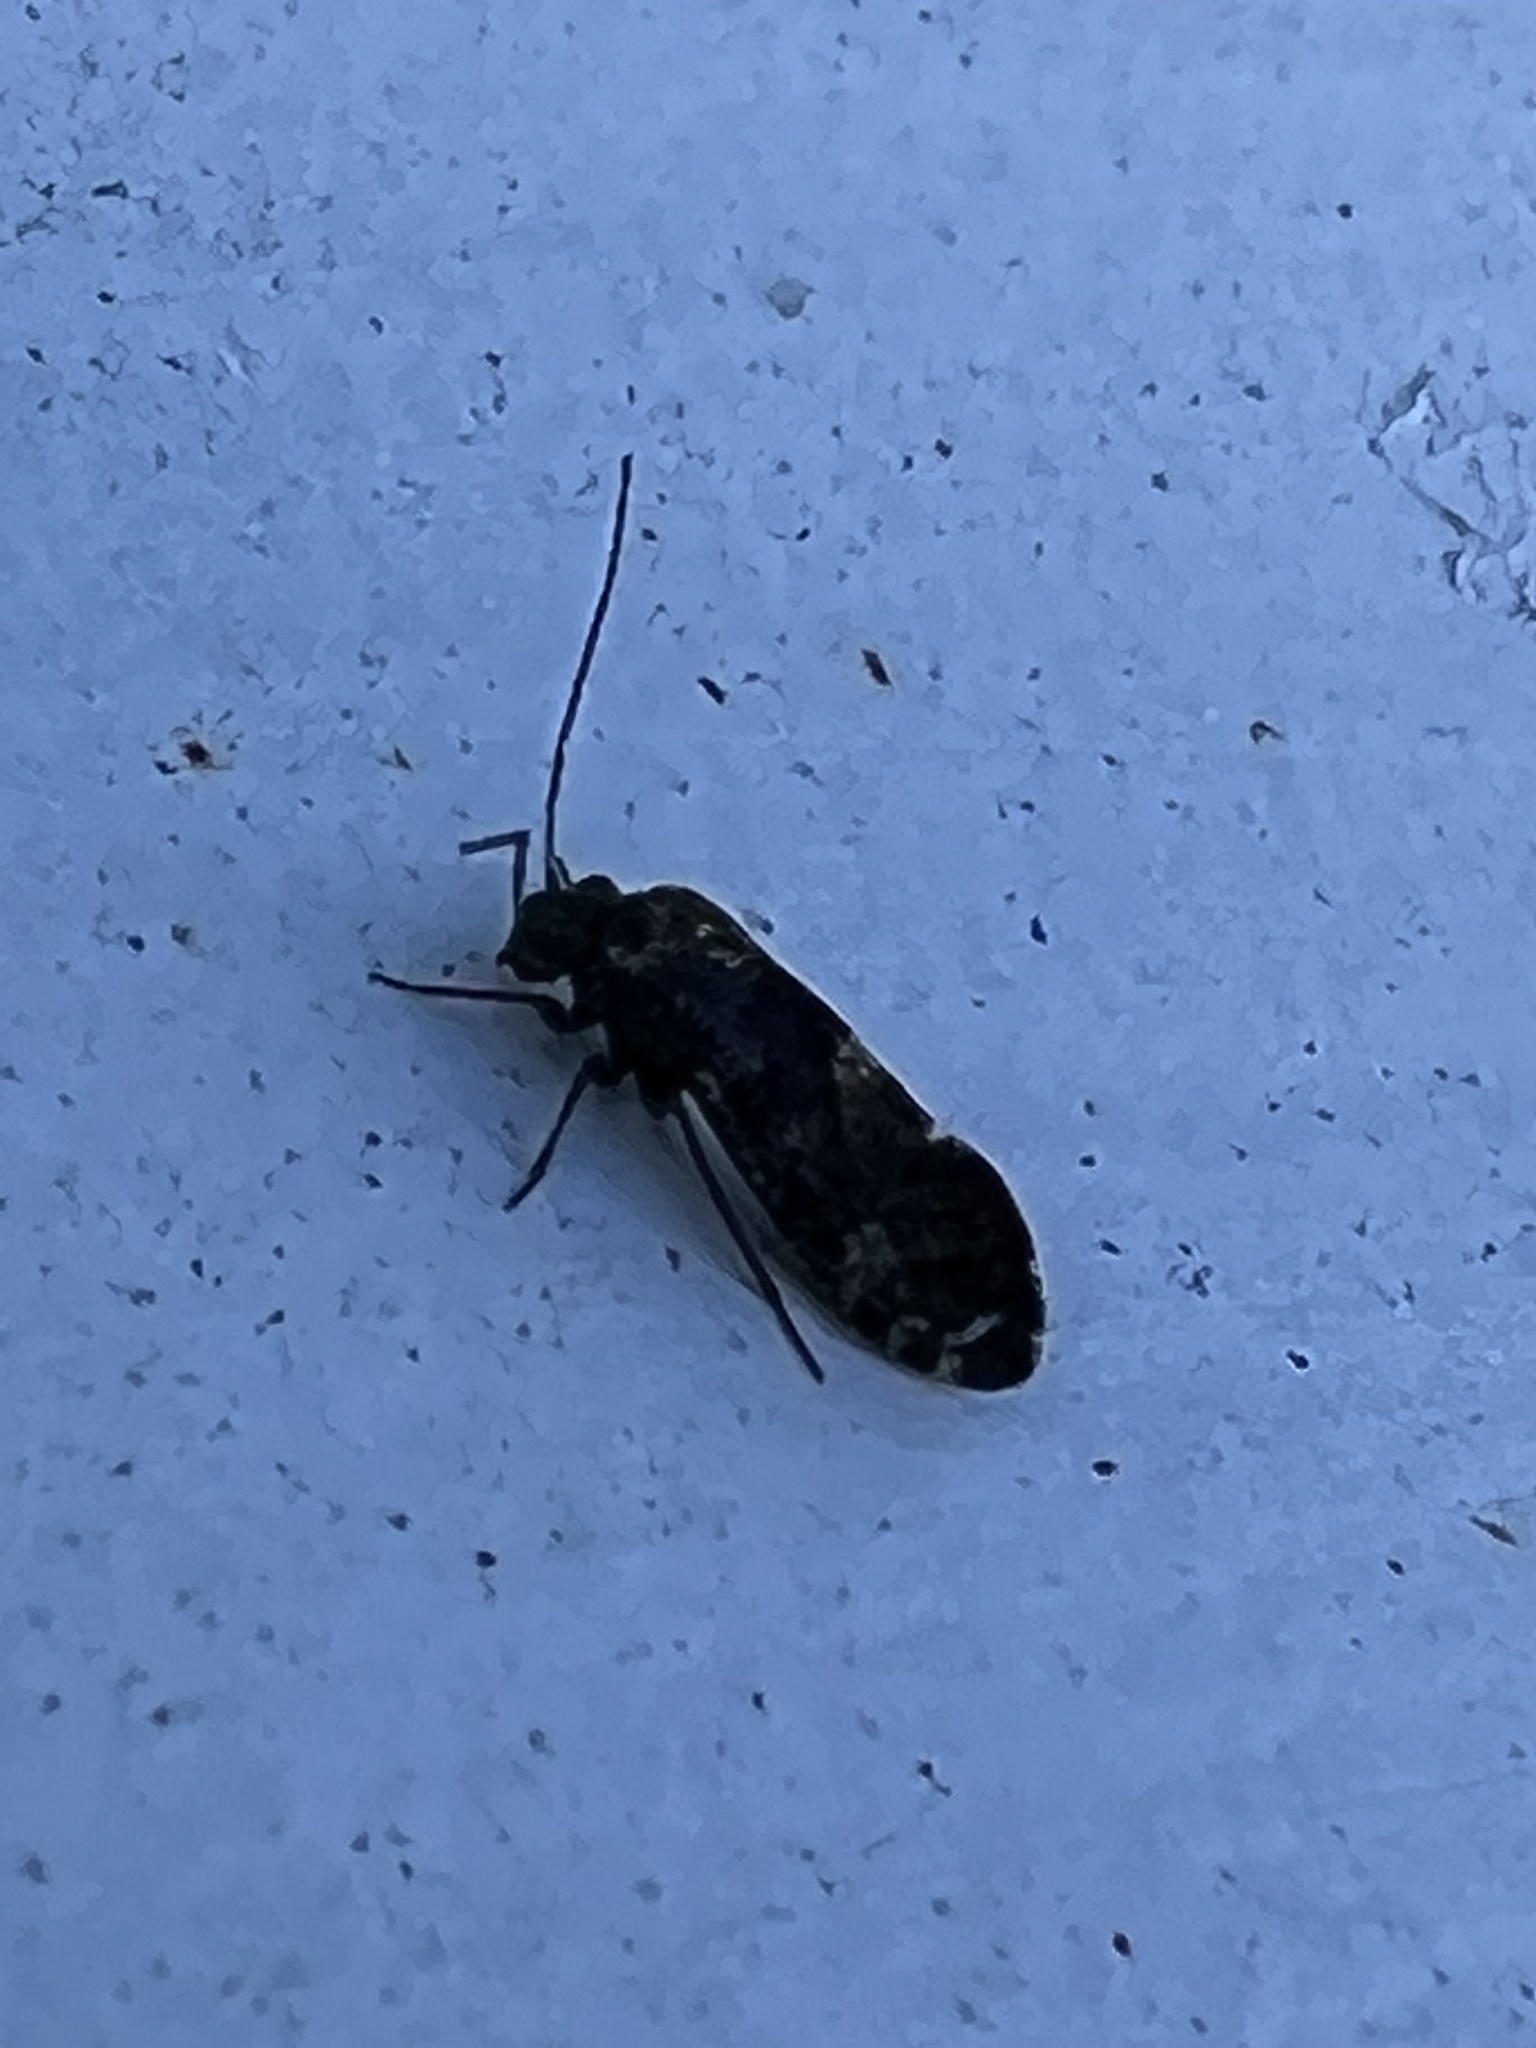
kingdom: Animalia
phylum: Arthropoda
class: Insecta
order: Psocodea
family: Myopsocidae
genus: Nimbopsocus
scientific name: Nimbopsocus australis
